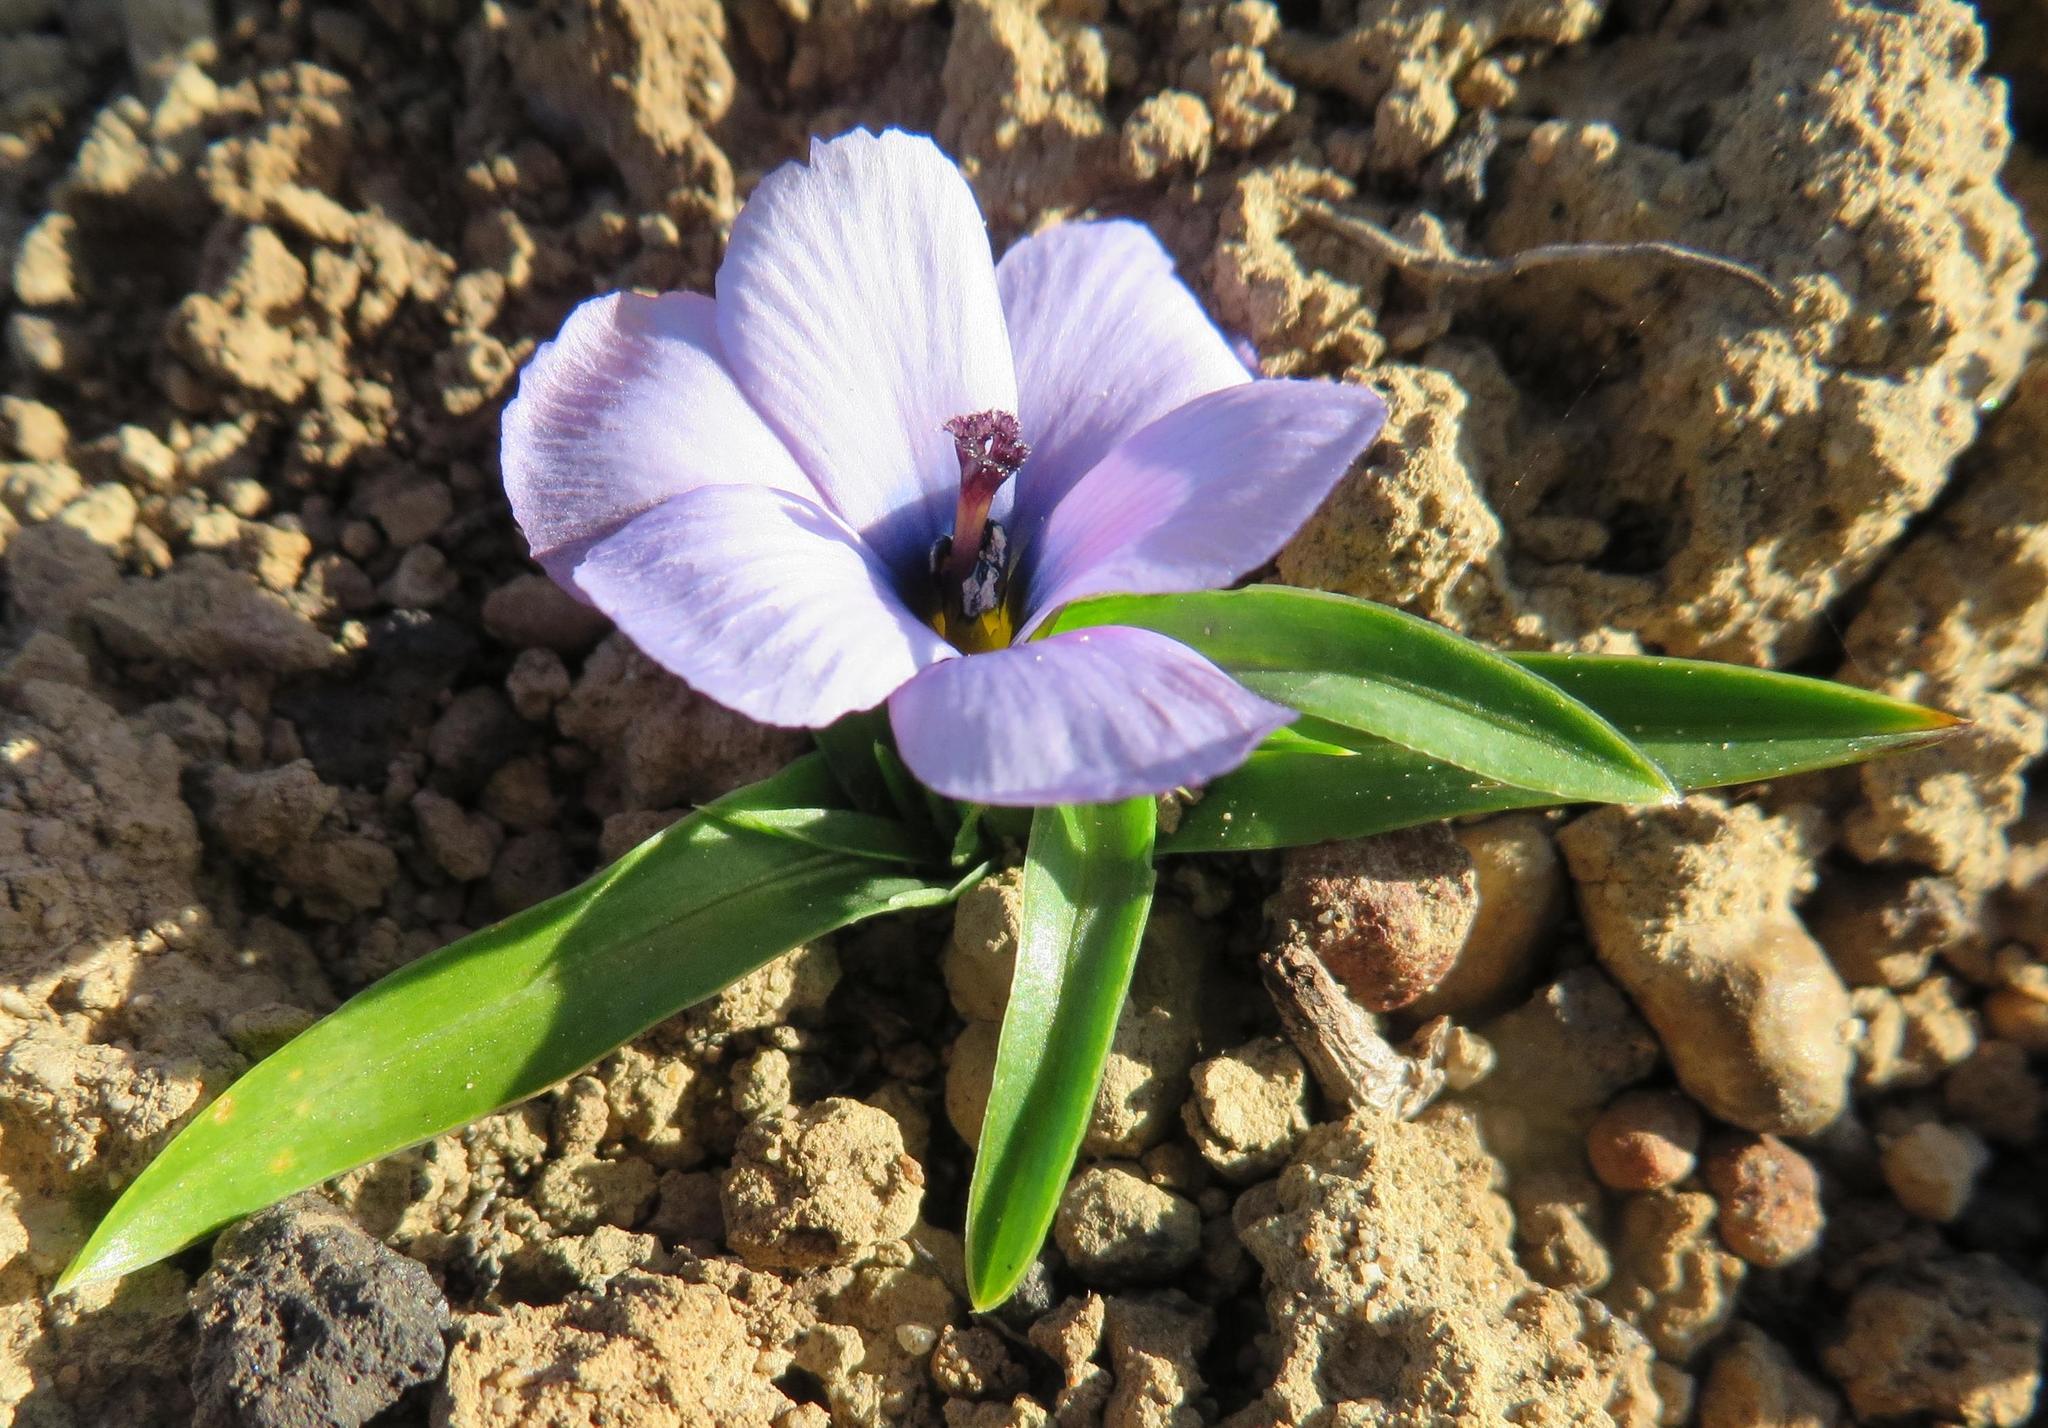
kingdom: Plantae
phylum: Tracheophyta
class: Liliopsida
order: Asparagales
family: Iridaceae
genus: Moraea
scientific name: Moraea versicolor
